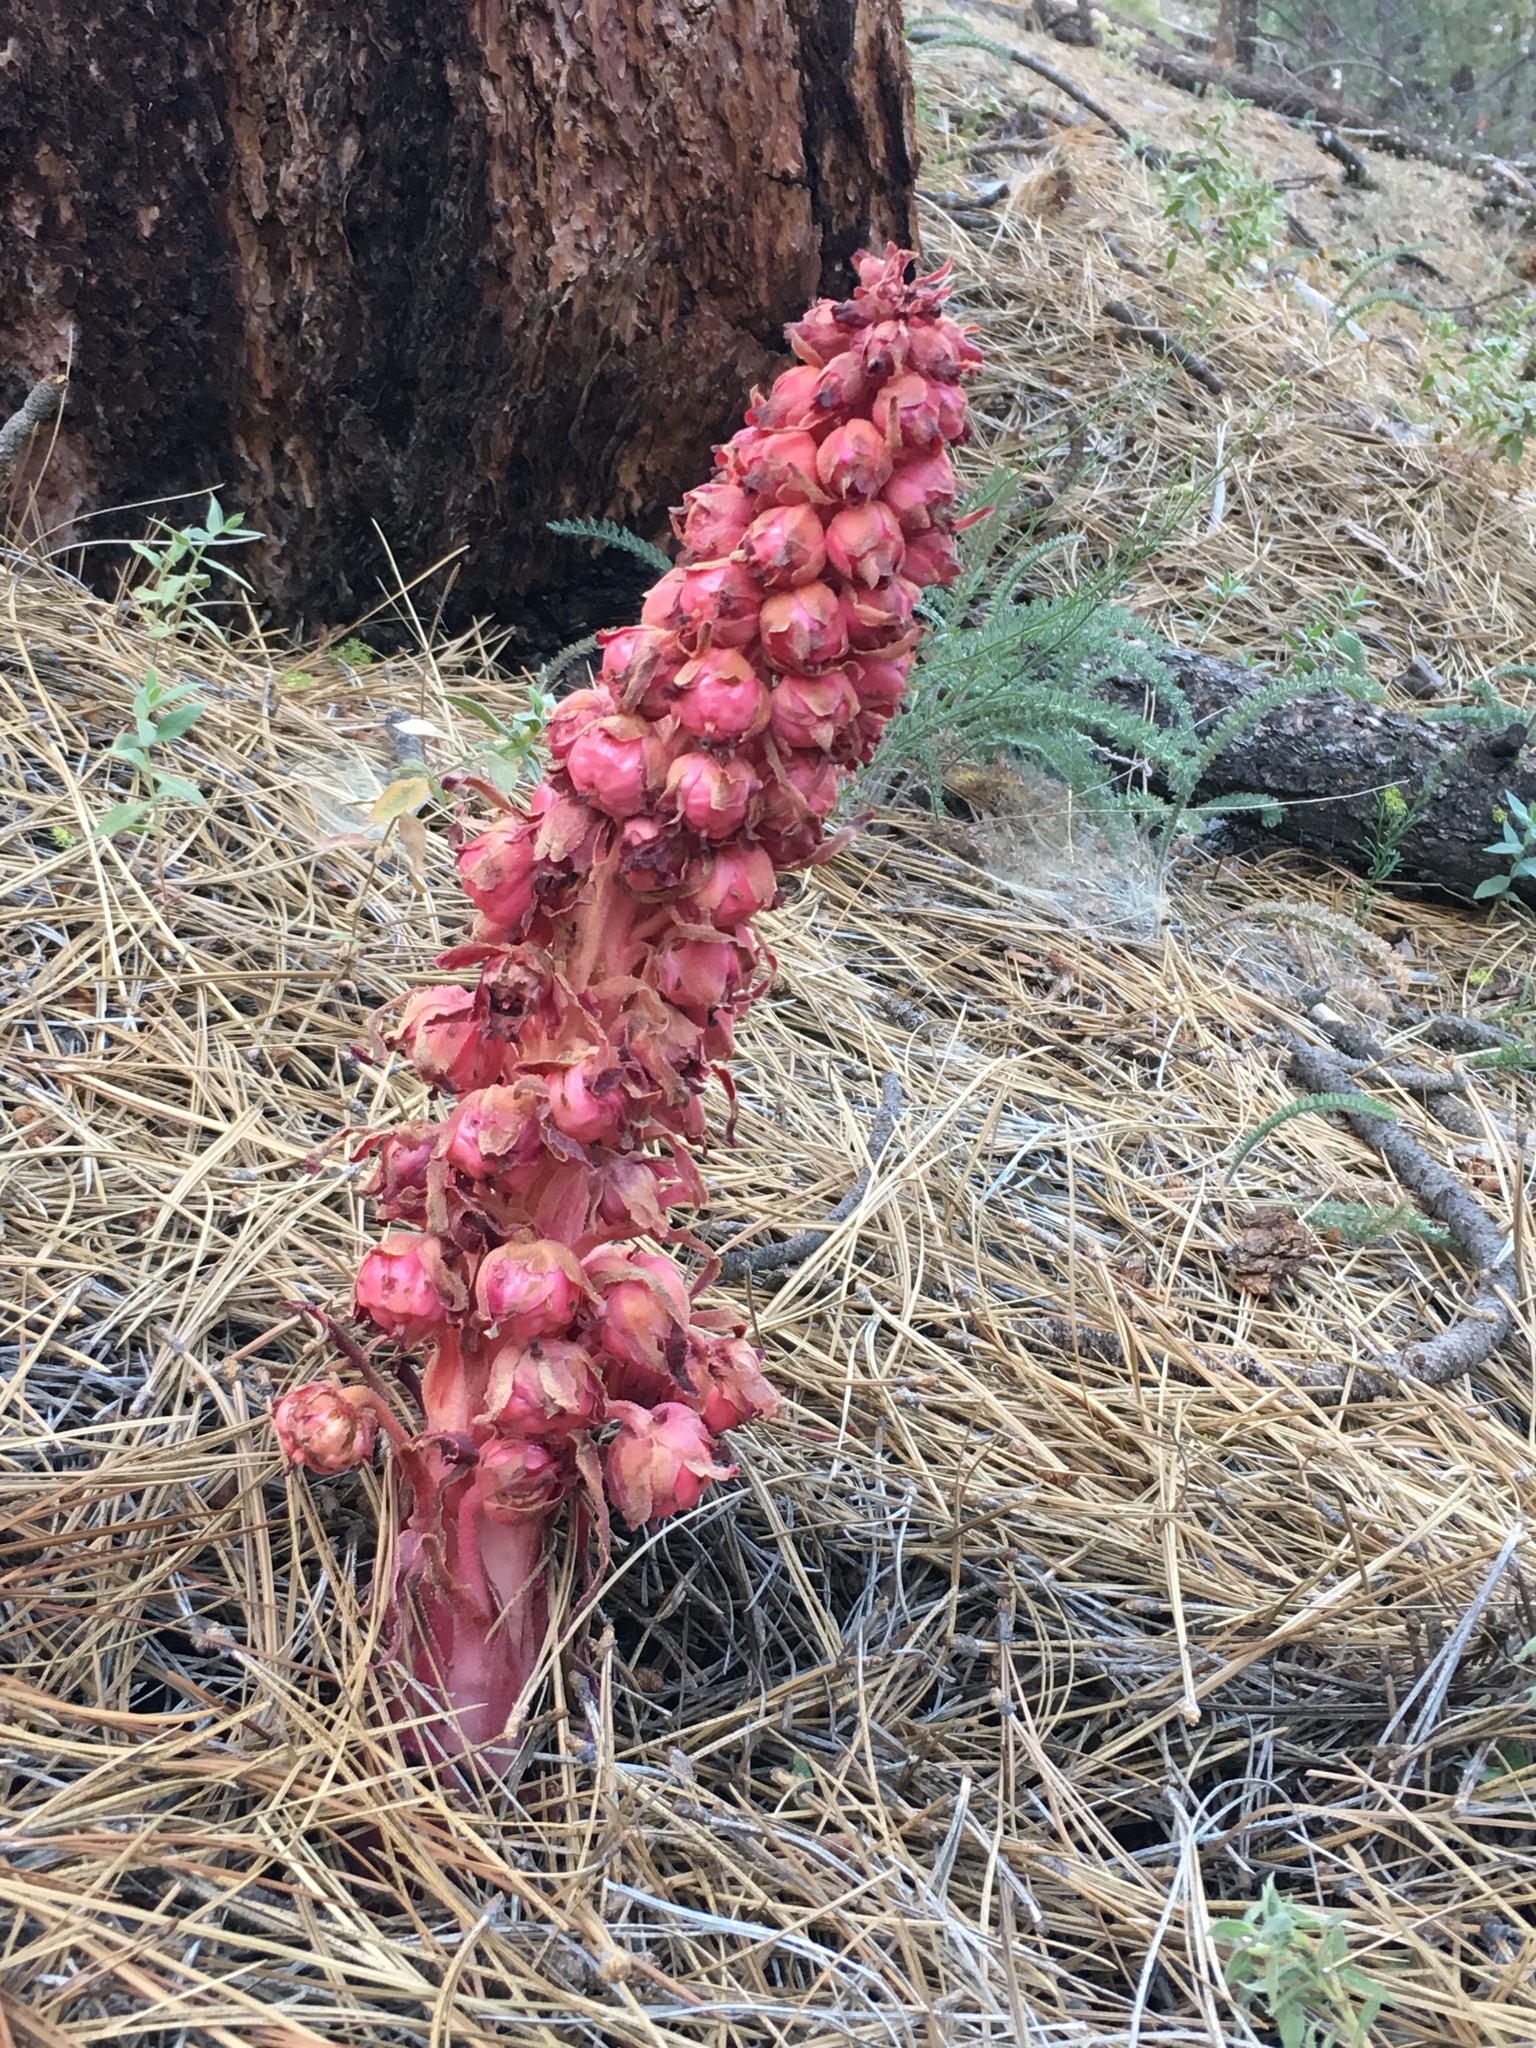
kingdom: Plantae
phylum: Tracheophyta
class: Magnoliopsida
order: Ericales
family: Ericaceae
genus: Sarcodes
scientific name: Sarcodes sanguinea
